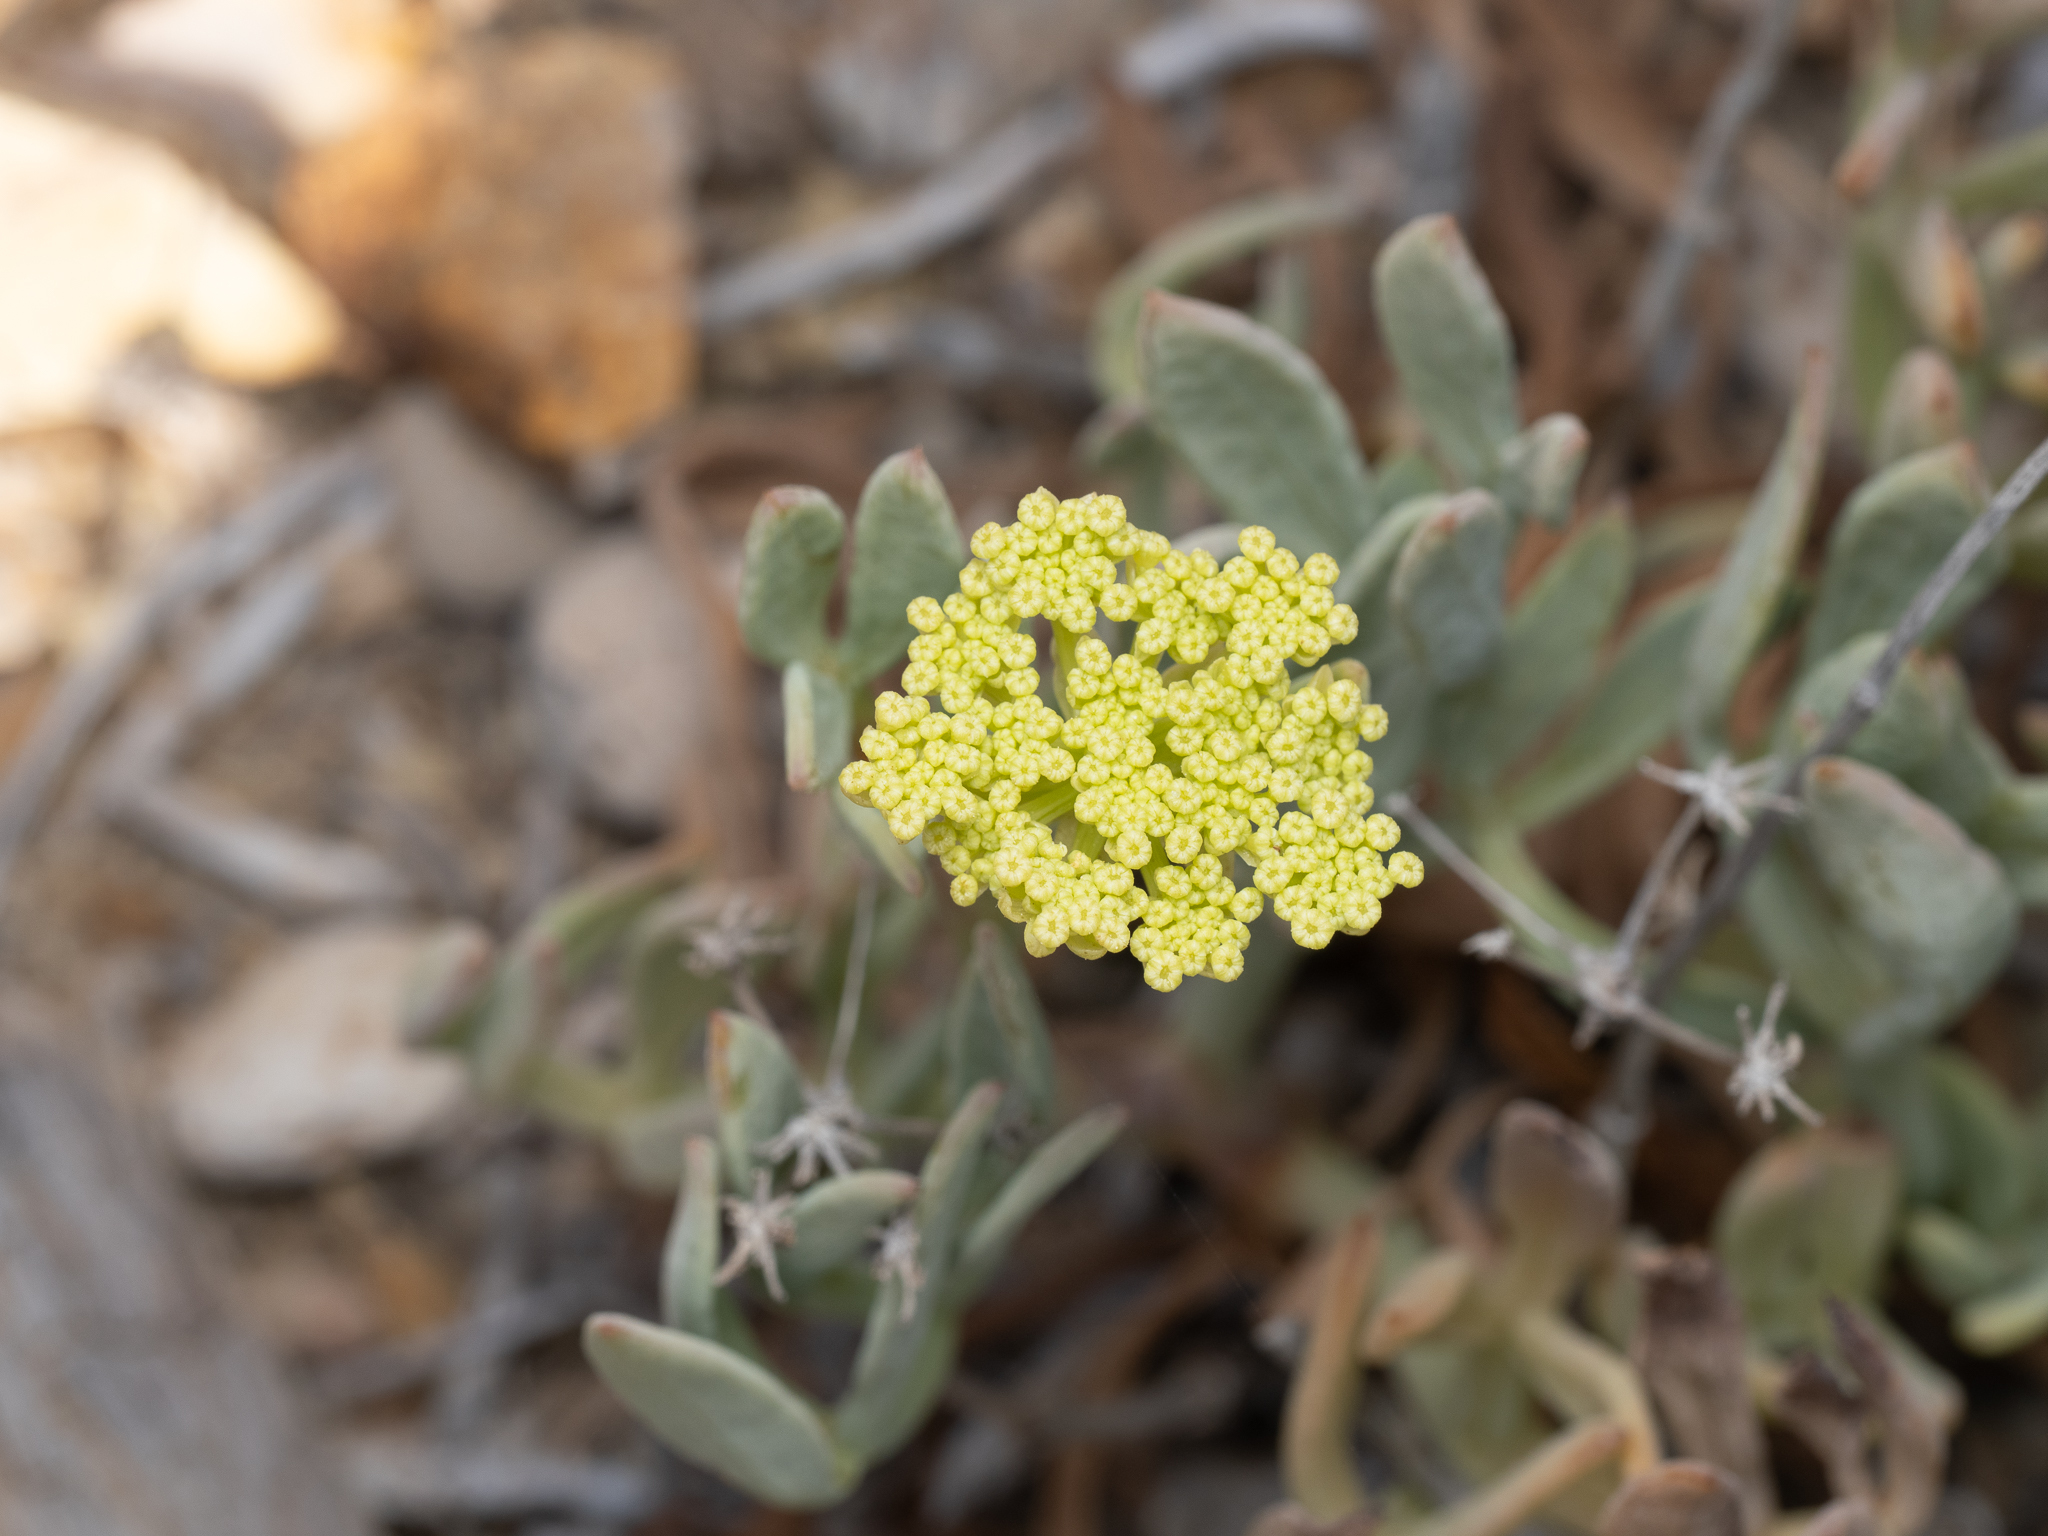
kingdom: Plantae
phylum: Tracheophyta
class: Magnoliopsida
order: Apiales
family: Apiaceae
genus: Crithmum
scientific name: Crithmum maritimum
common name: Rock samphire
